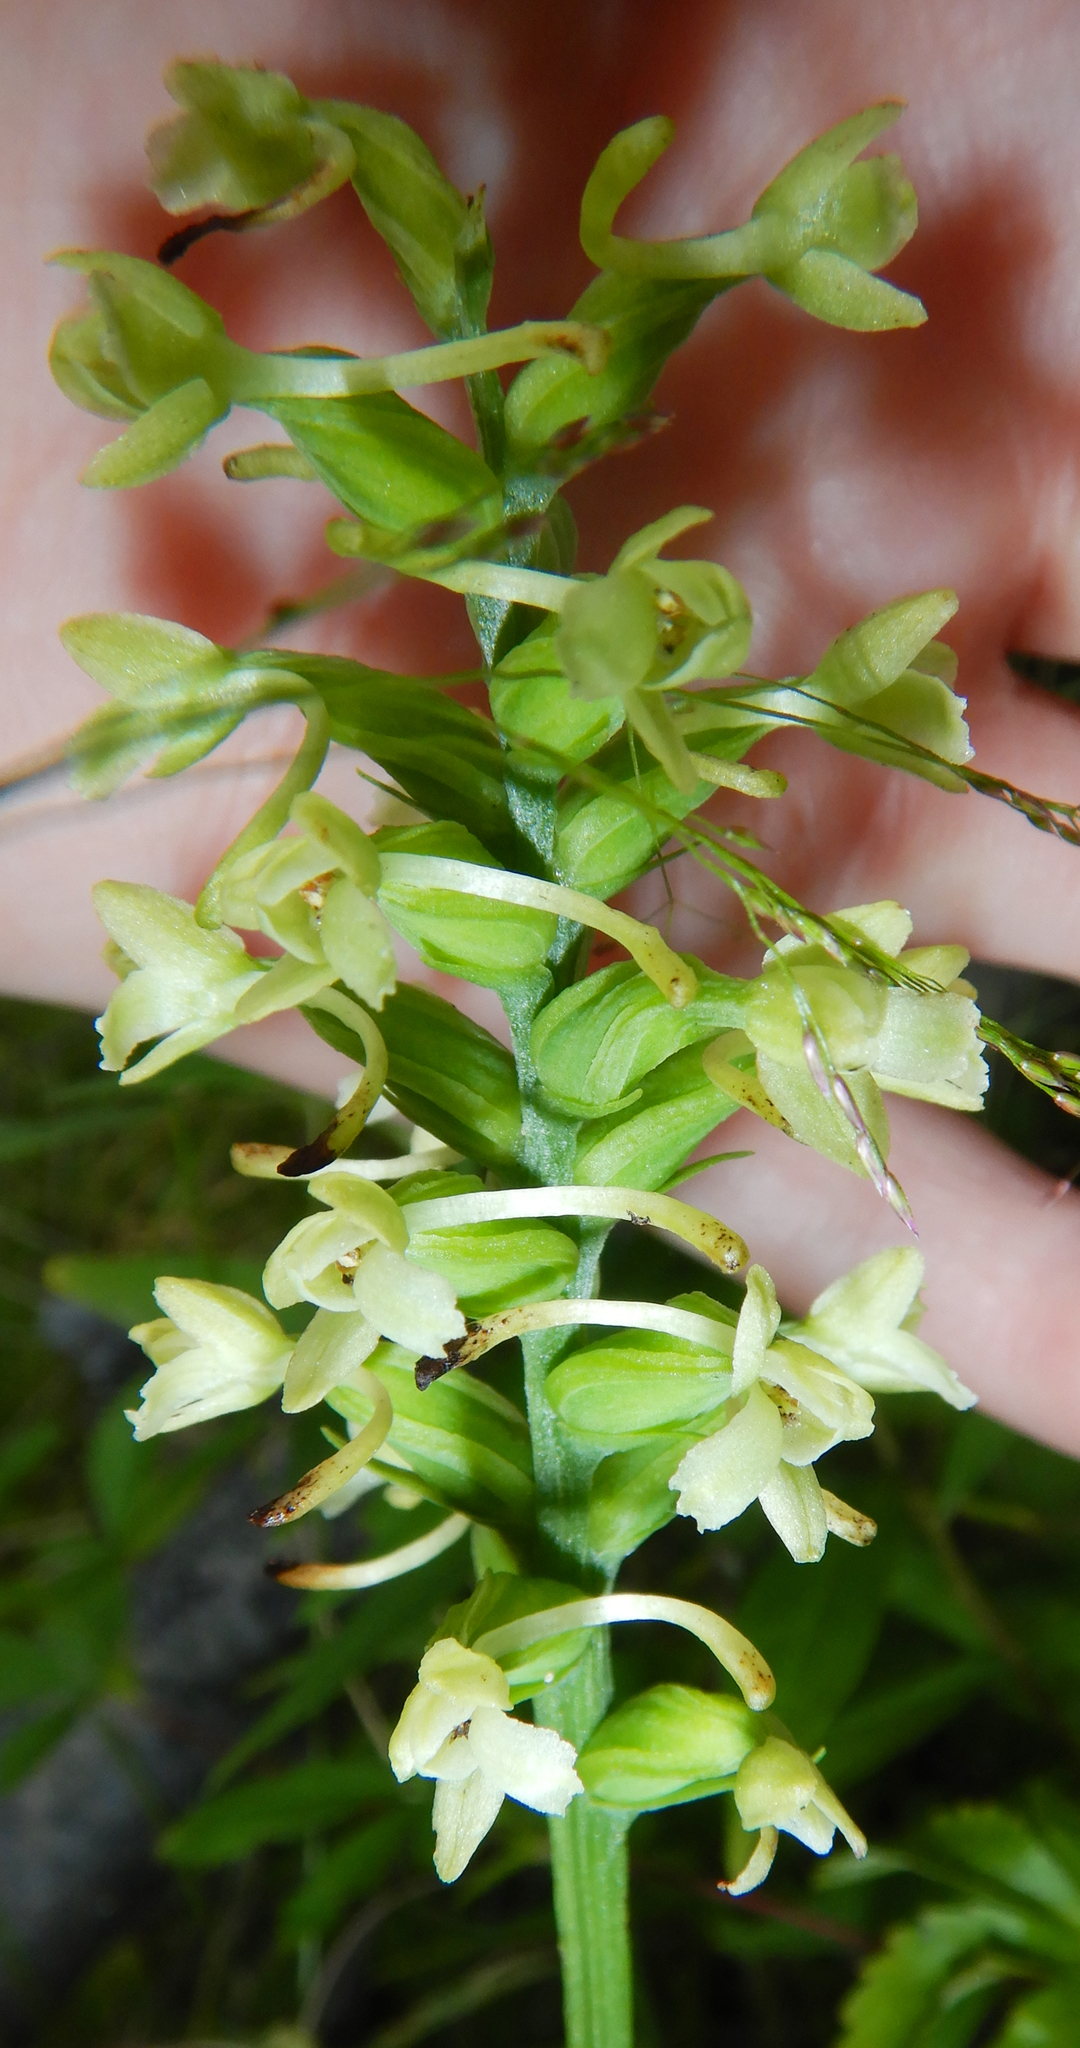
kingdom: Plantae
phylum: Tracheophyta
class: Liliopsida
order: Asparagales
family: Orchidaceae
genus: Platanthera
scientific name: Platanthera clavellata
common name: Club-spur orchid
